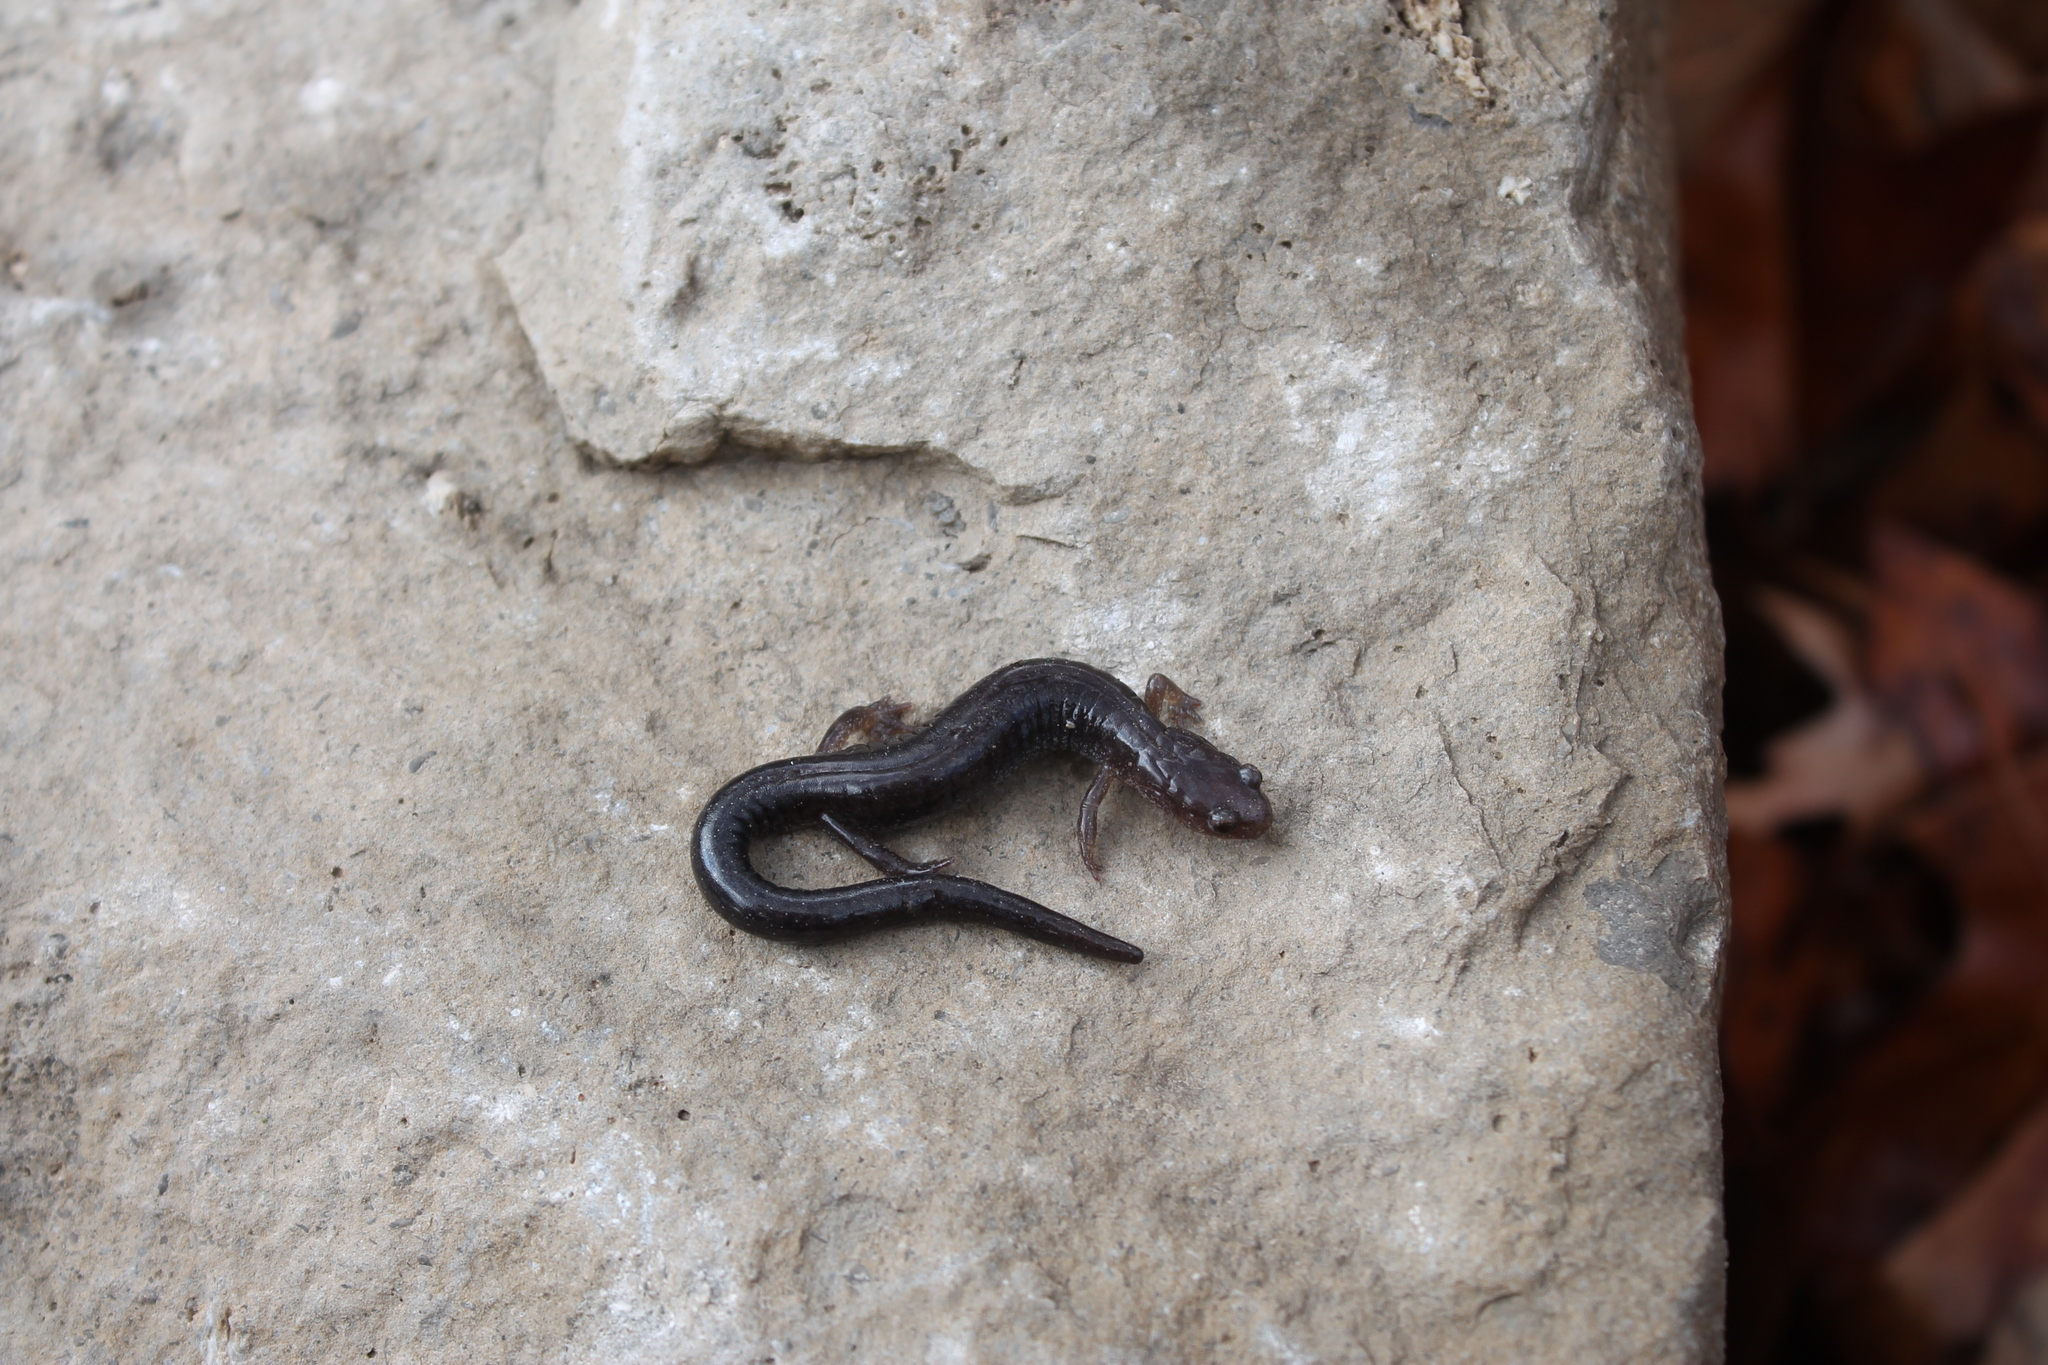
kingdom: Animalia
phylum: Chordata
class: Amphibia
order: Caudata
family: Plethodontidae
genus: Plethodon
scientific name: Plethodon dorsalis
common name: Northern zigzag salamander
